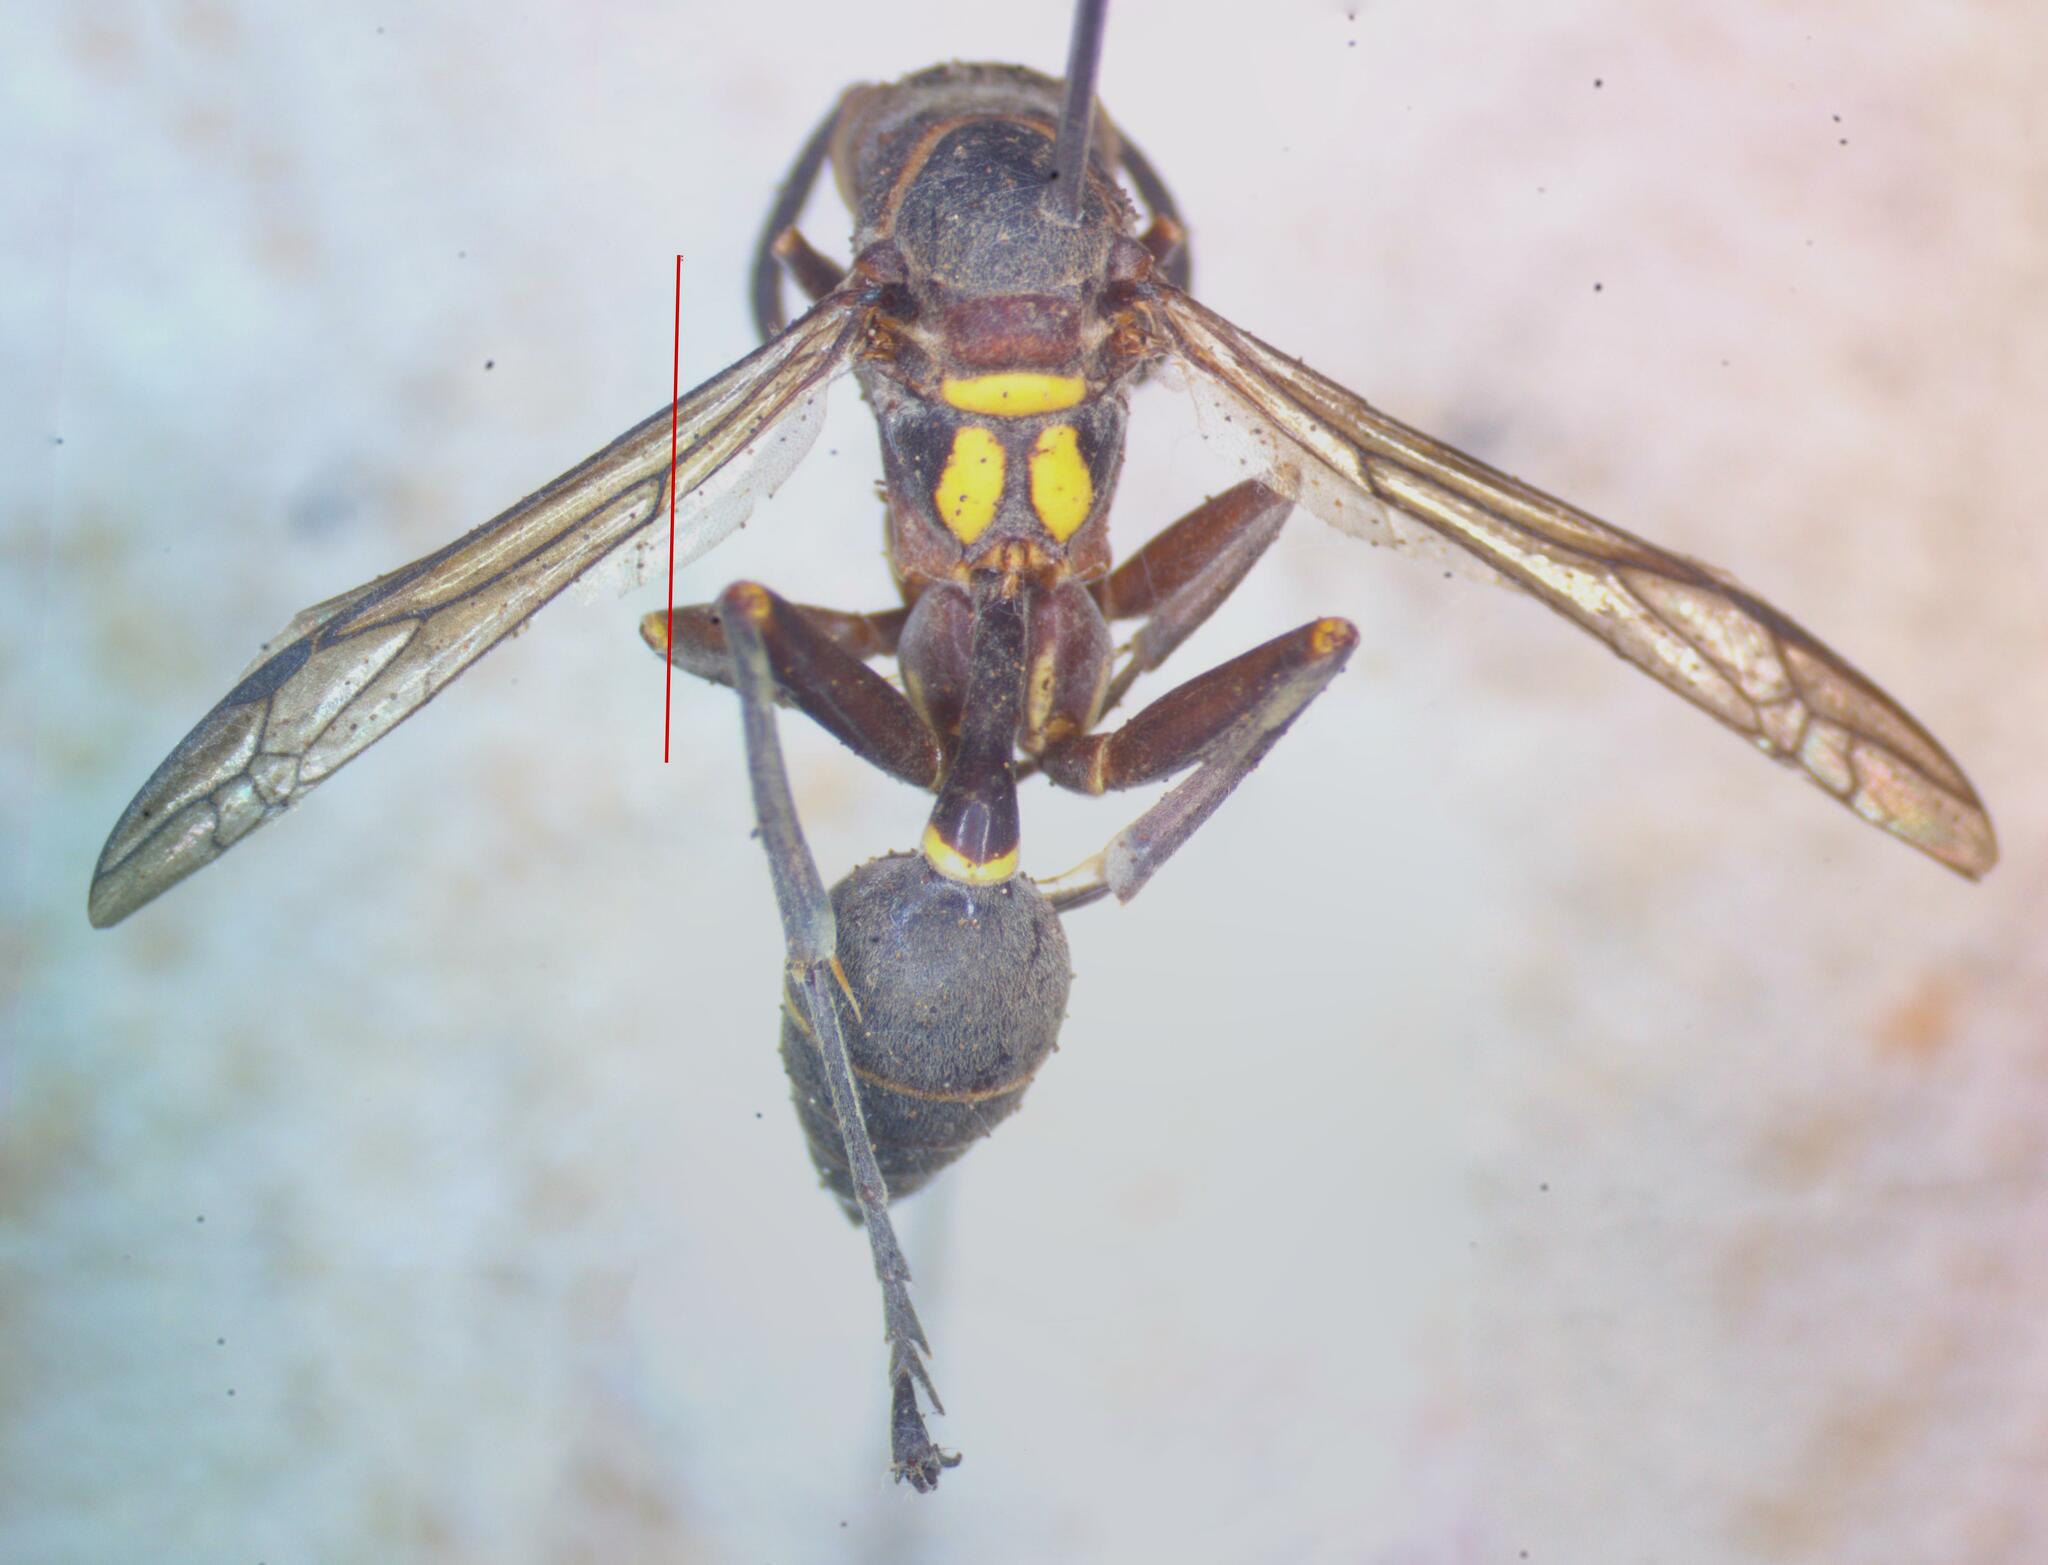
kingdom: Animalia
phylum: Arthropoda
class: Insecta
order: Hymenoptera
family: Vespidae
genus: Mischocyttarus
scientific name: Mischocyttarus bertonii
